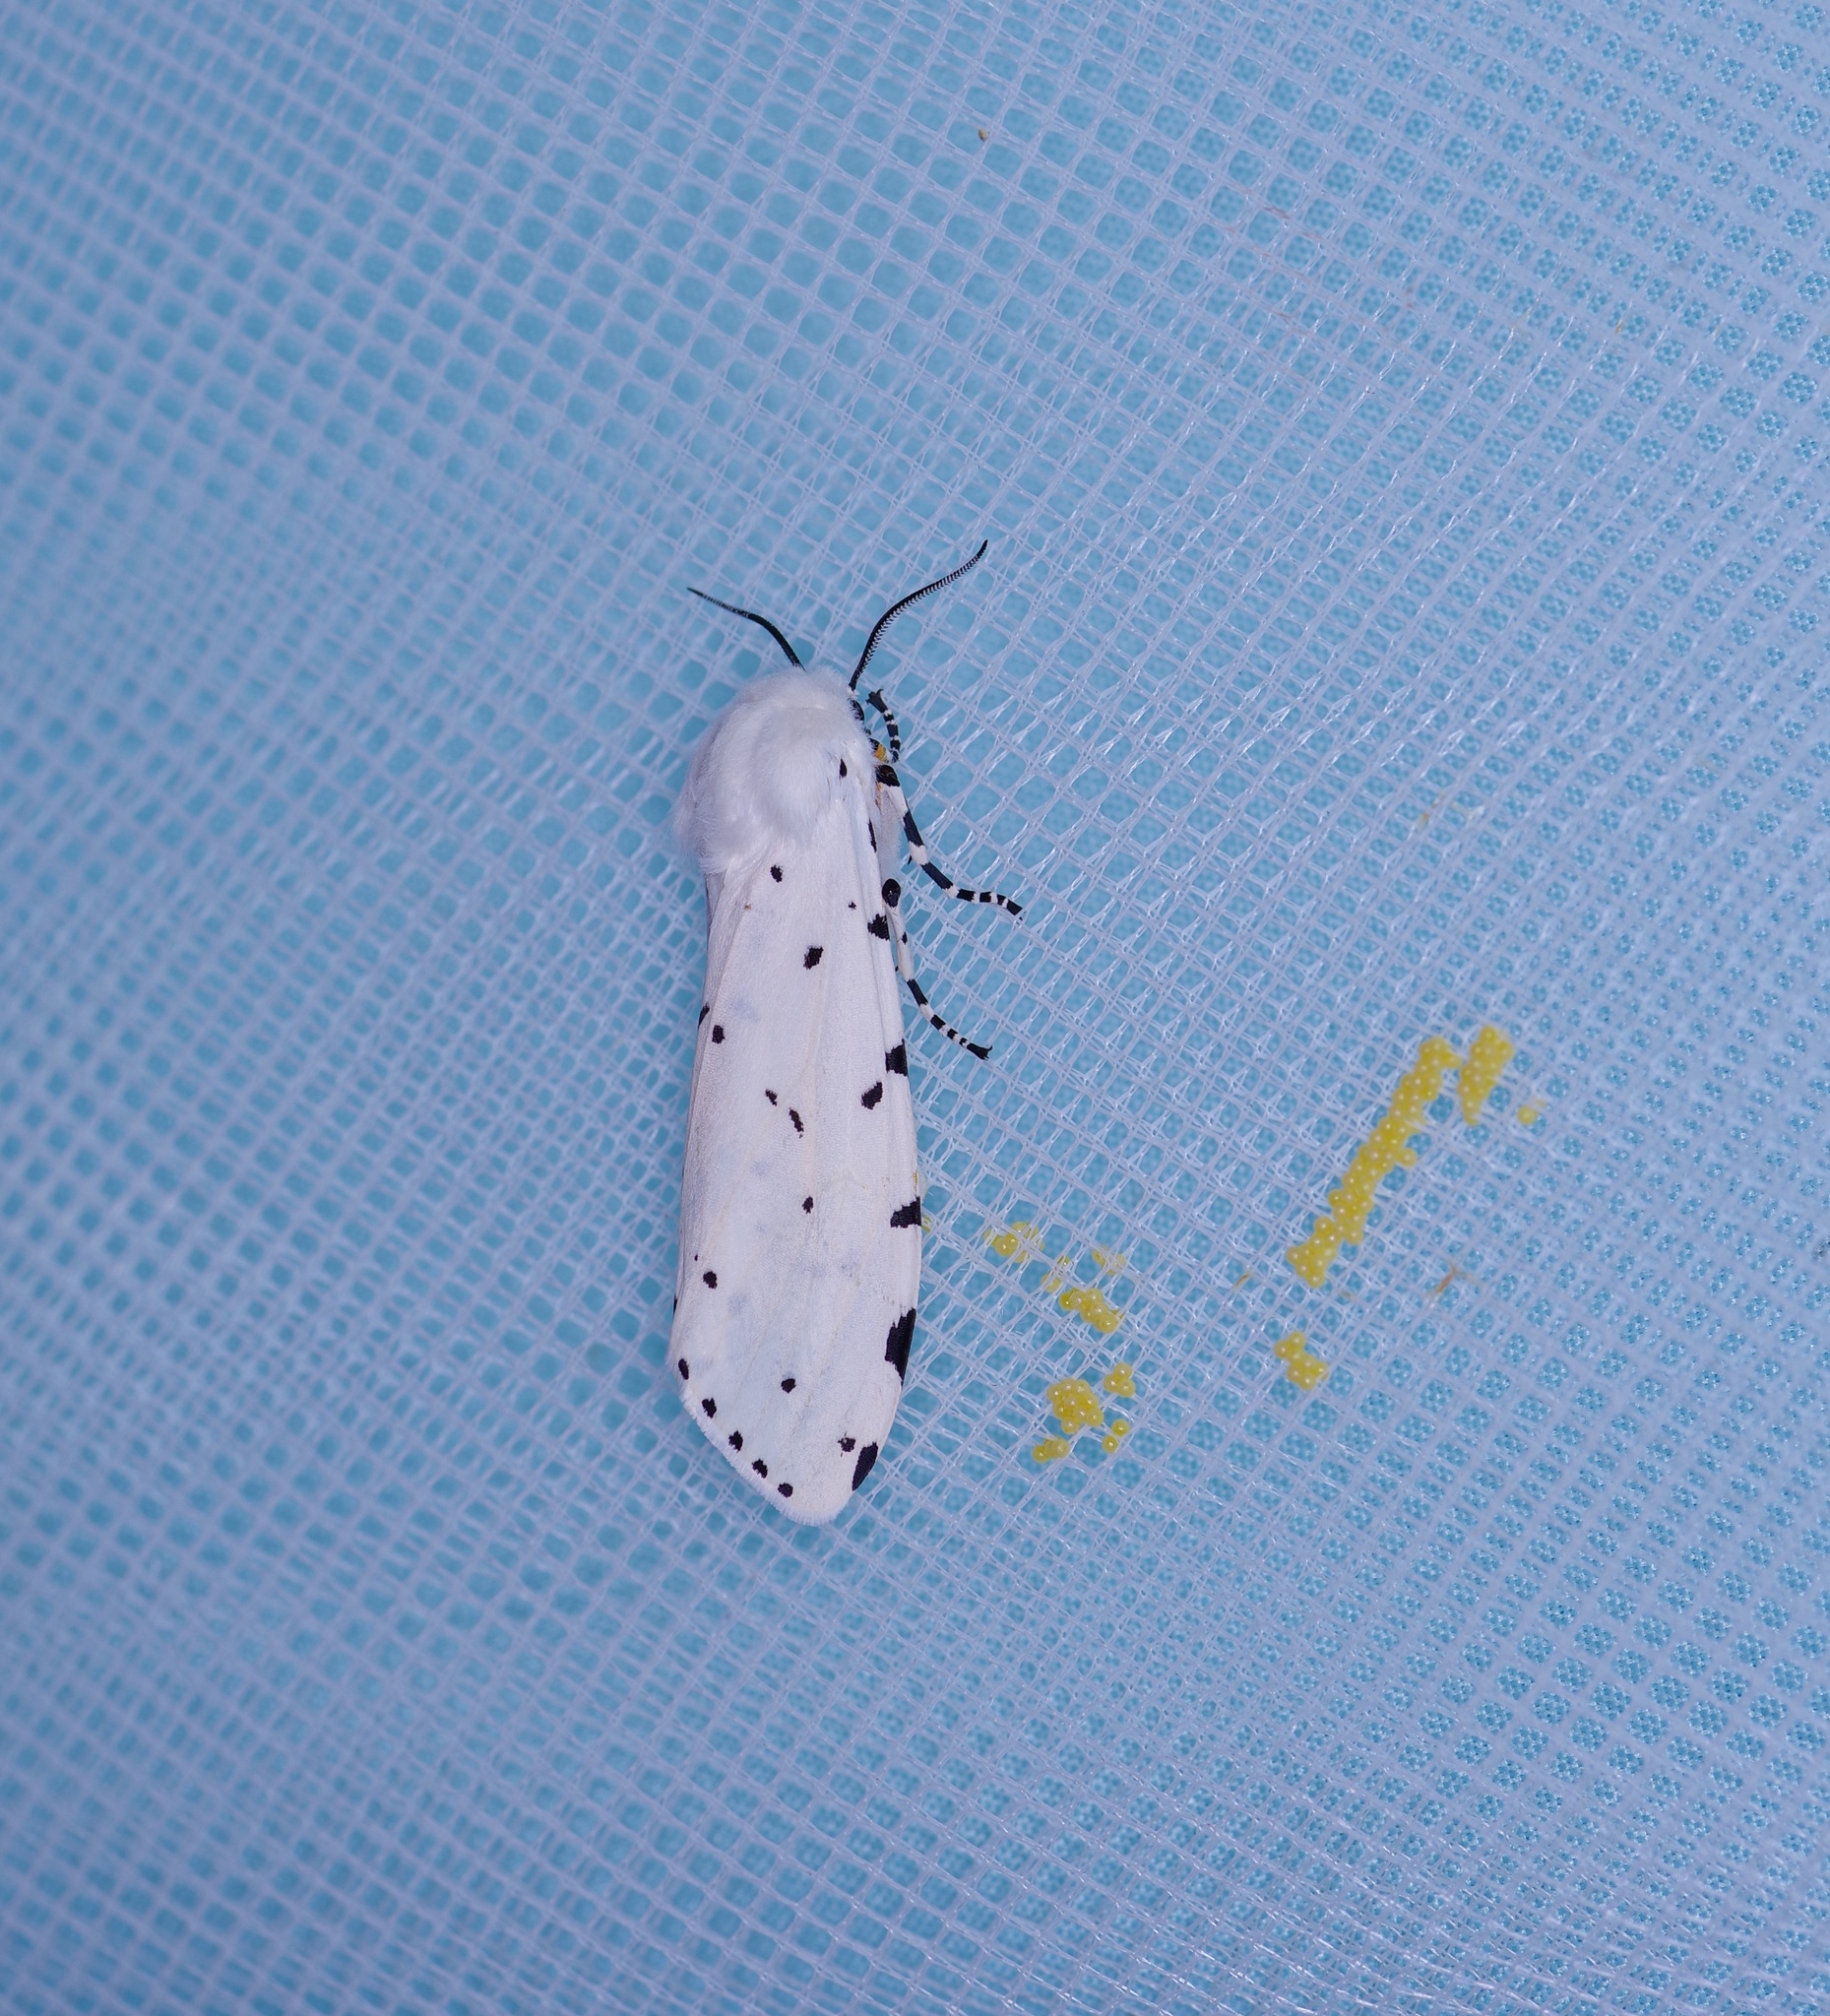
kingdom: Animalia
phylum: Arthropoda
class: Insecta
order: Lepidoptera
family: Erebidae
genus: Estigmene
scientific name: Estigmene acrea
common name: Salt marsh moth
